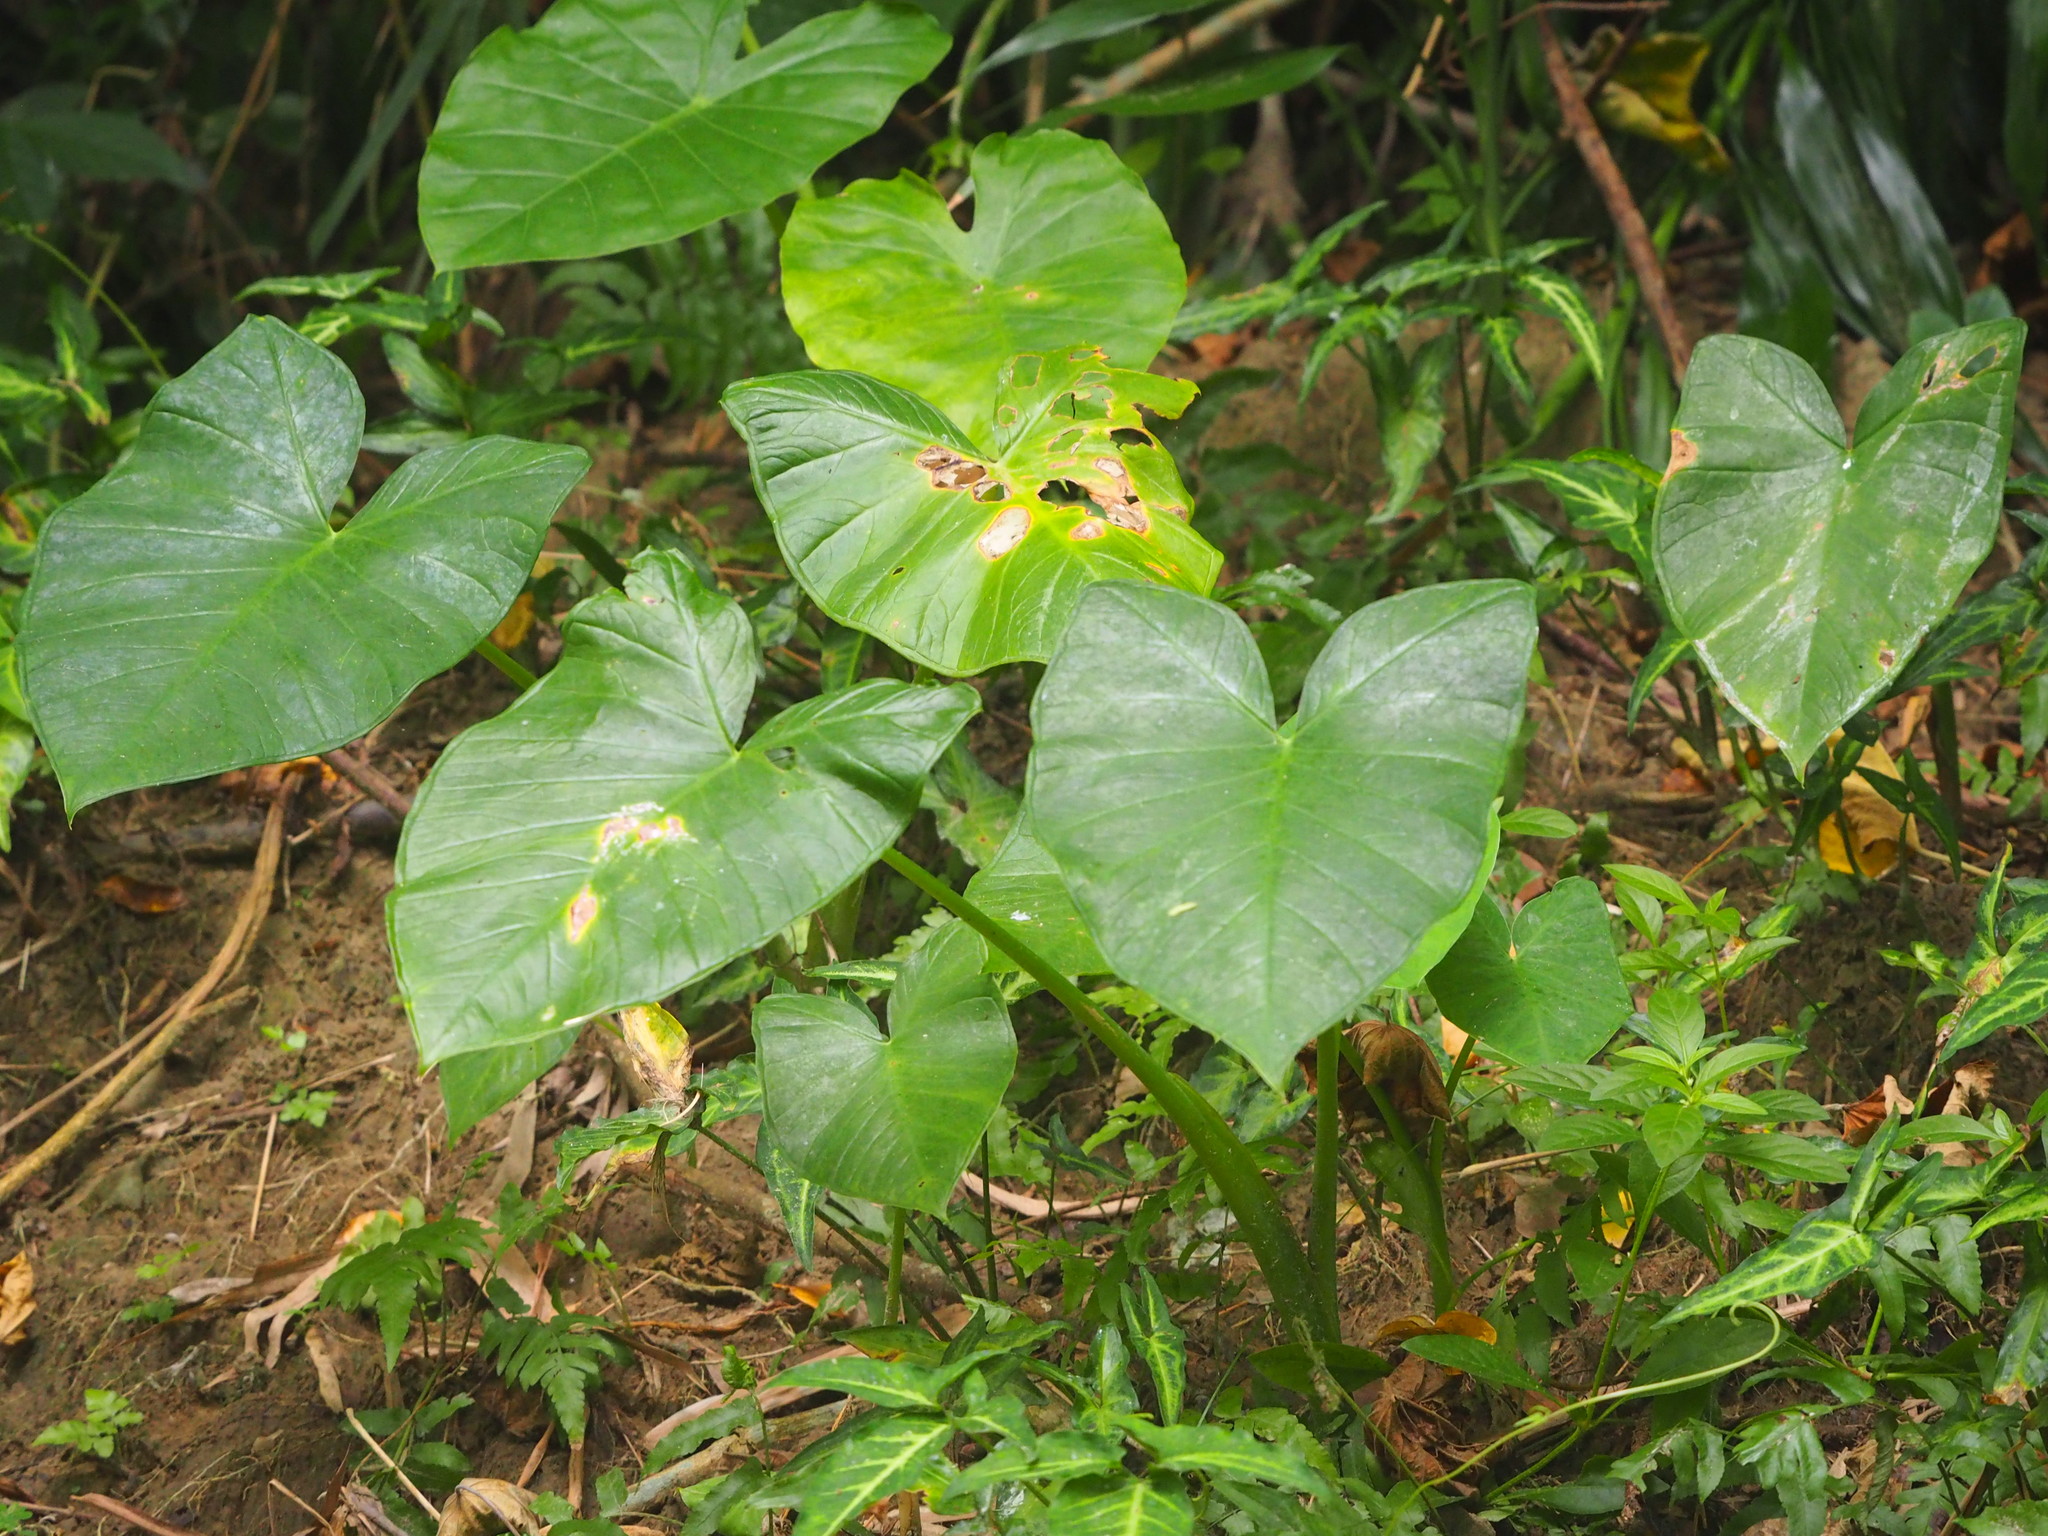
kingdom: Plantae
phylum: Tracheophyta
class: Liliopsida
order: Alismatales
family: Araceae
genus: Xanthosoma
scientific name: Xanthosoma sagittifolium
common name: Arrowleaf elephant's ear
